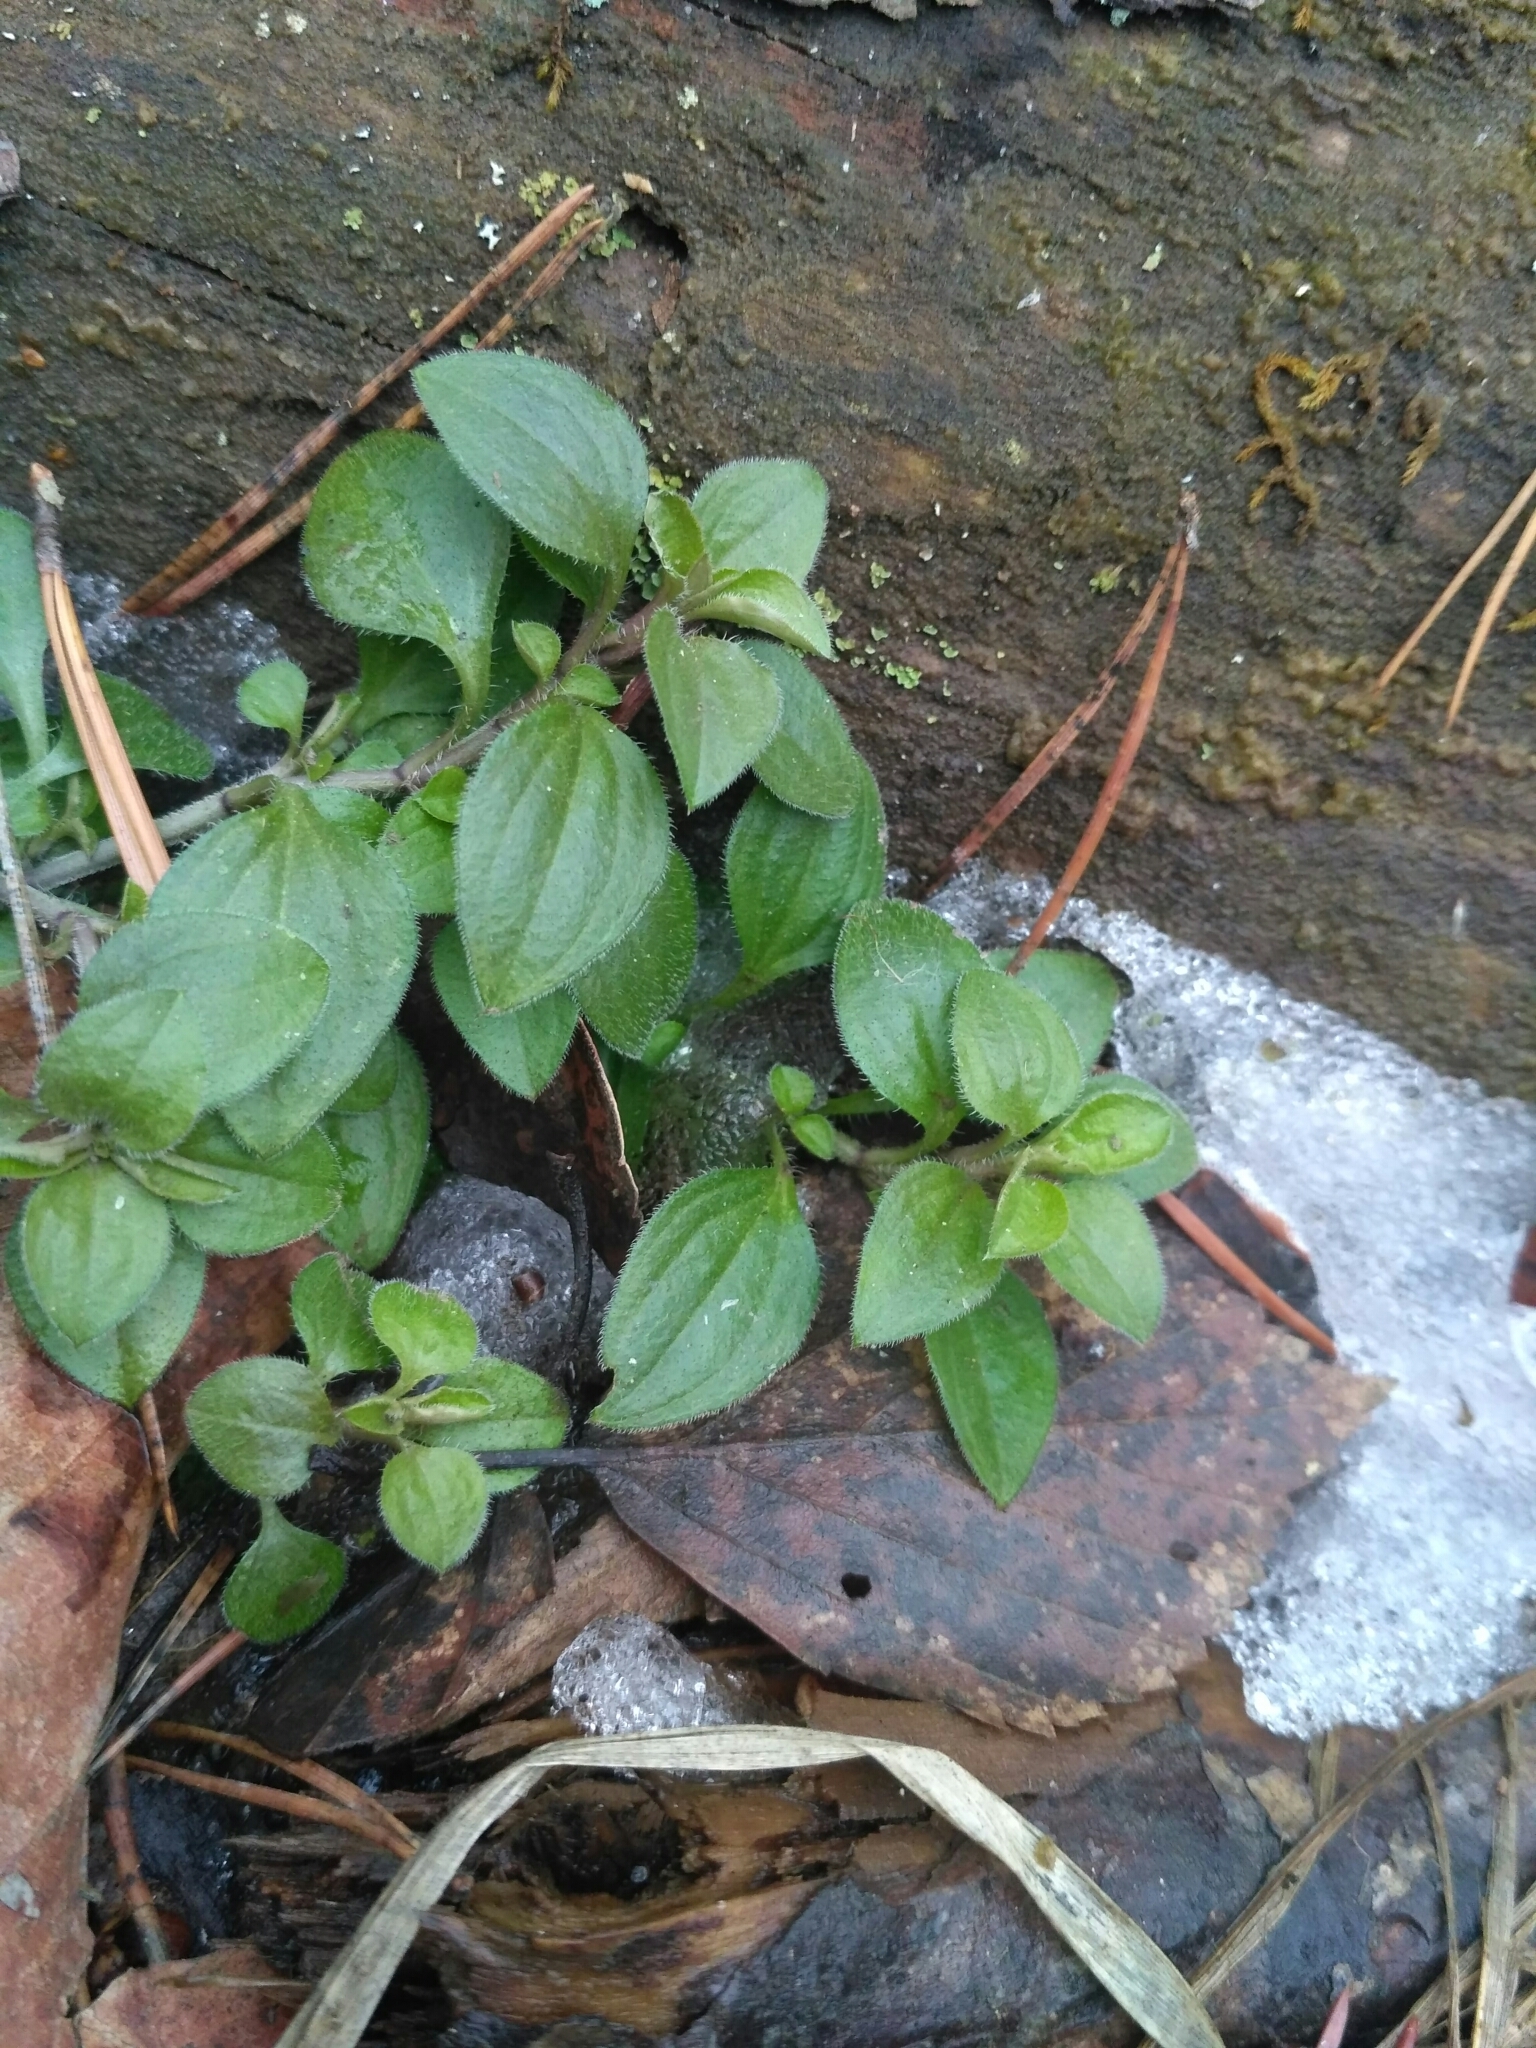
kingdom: Plantae
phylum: Tracheophyta
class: Magnoliopsida
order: Caryophyllales
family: Caryophyllaceae
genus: Moehringia
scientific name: Moehringia trinervia
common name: Three-nerved sandwort
